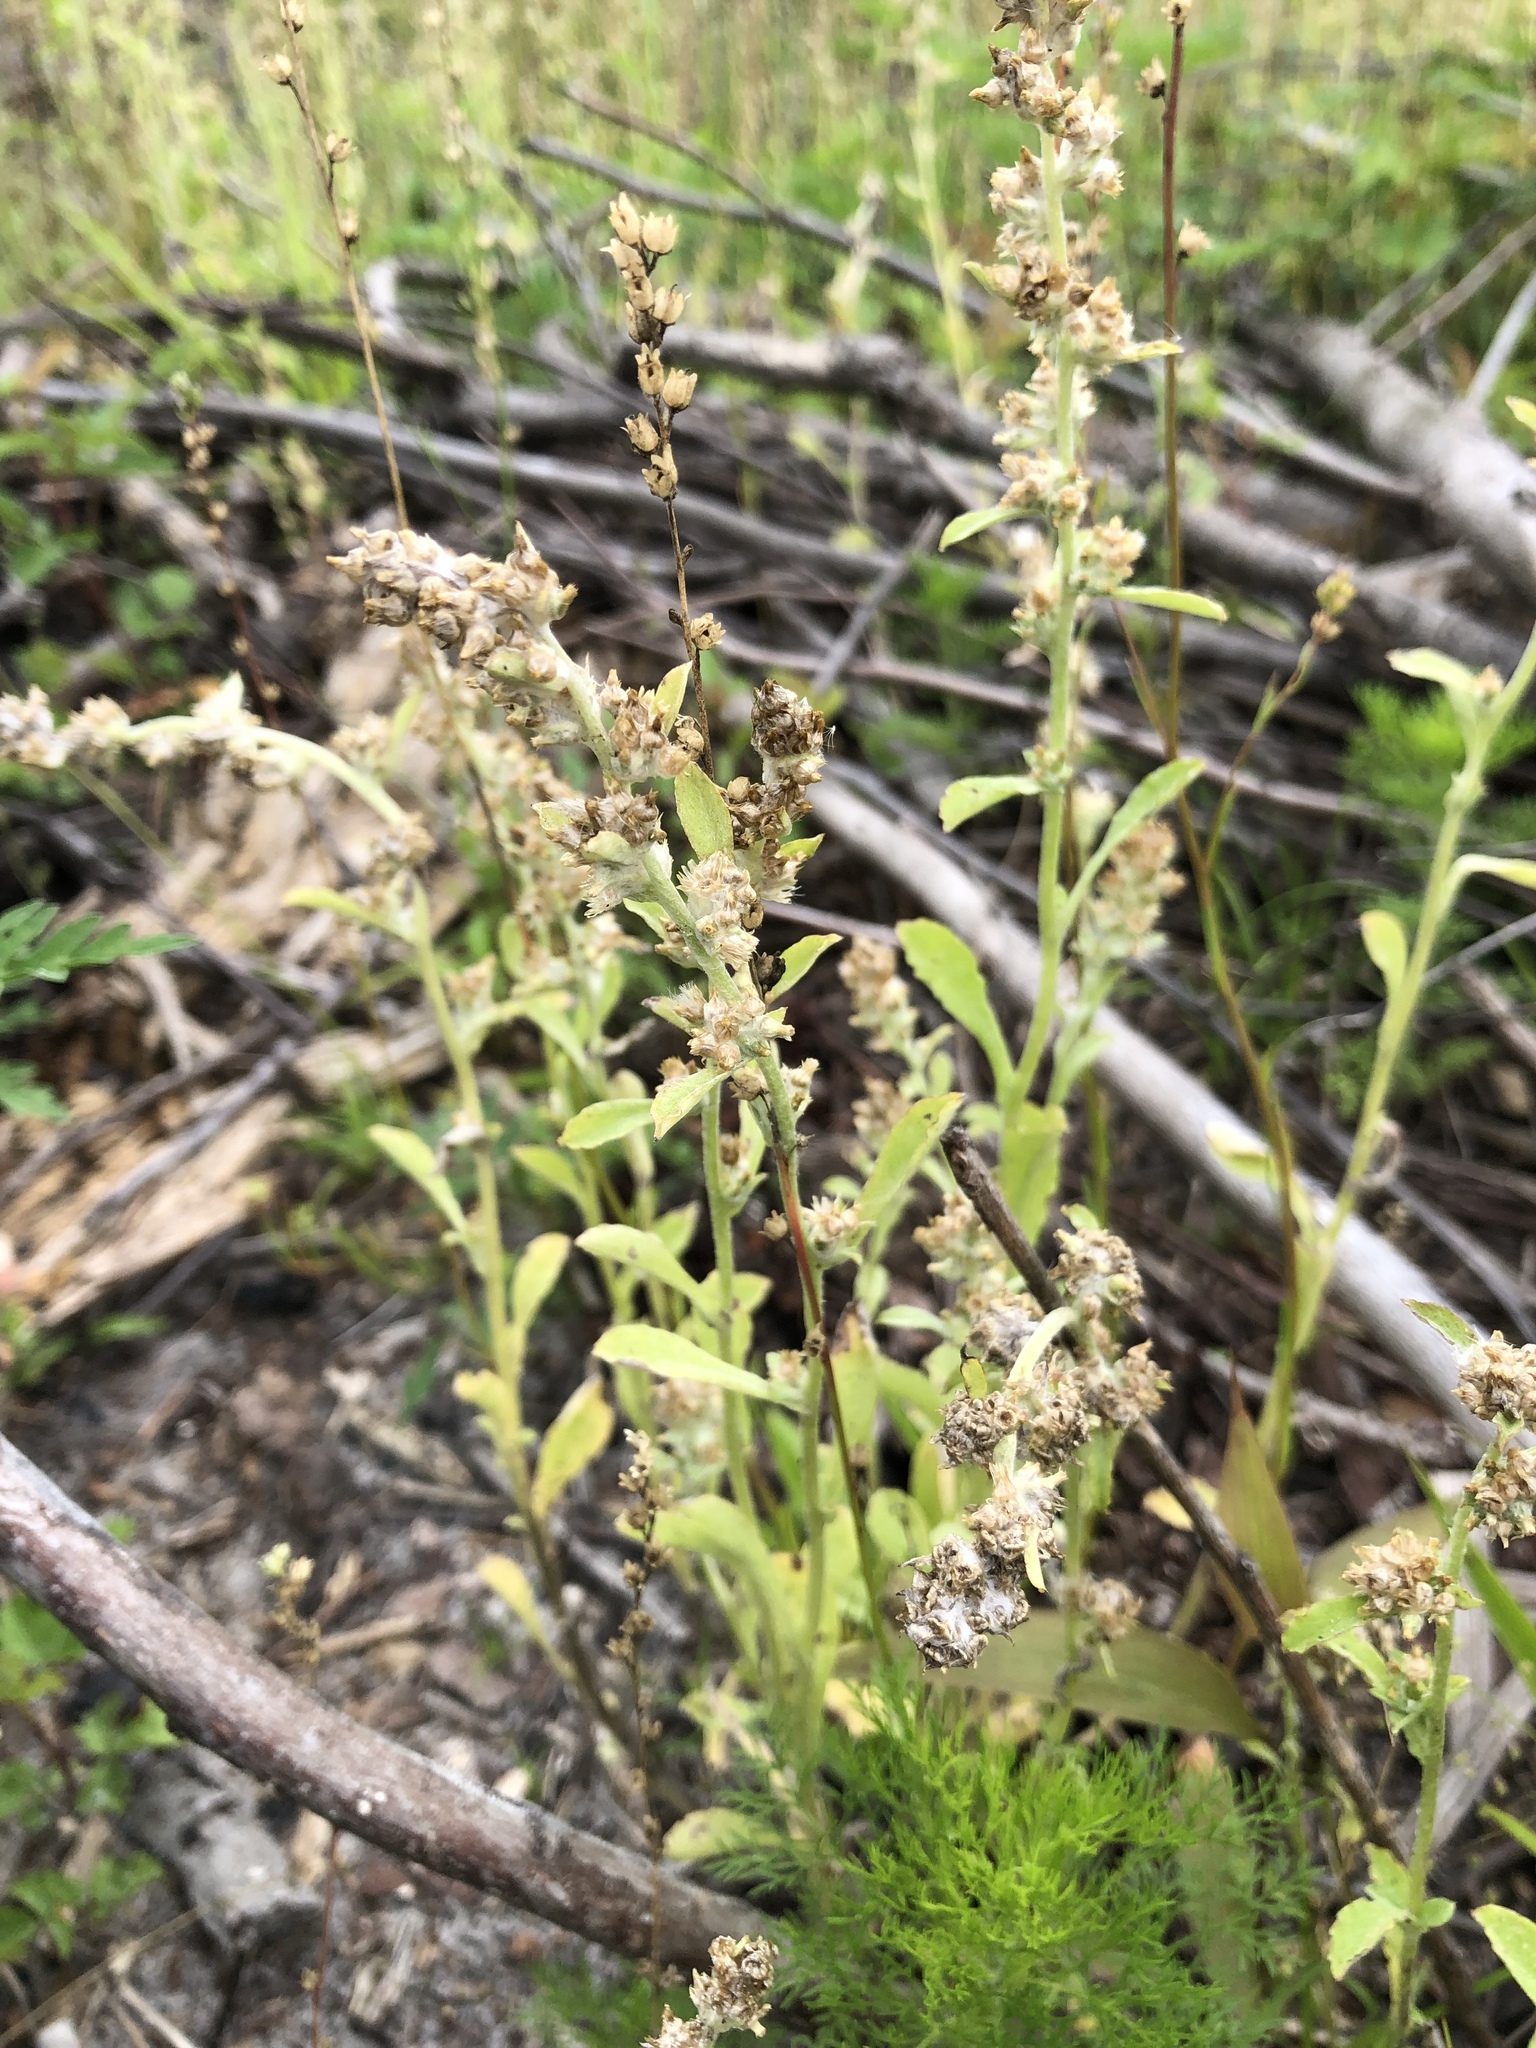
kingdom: Plantae
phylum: Tracheophyta
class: Magnoliopsida
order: Asterales
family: Asteraceae
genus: Gamochaeta
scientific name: Gamochaeta pensylvanica
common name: Pennsylvania everlasting
